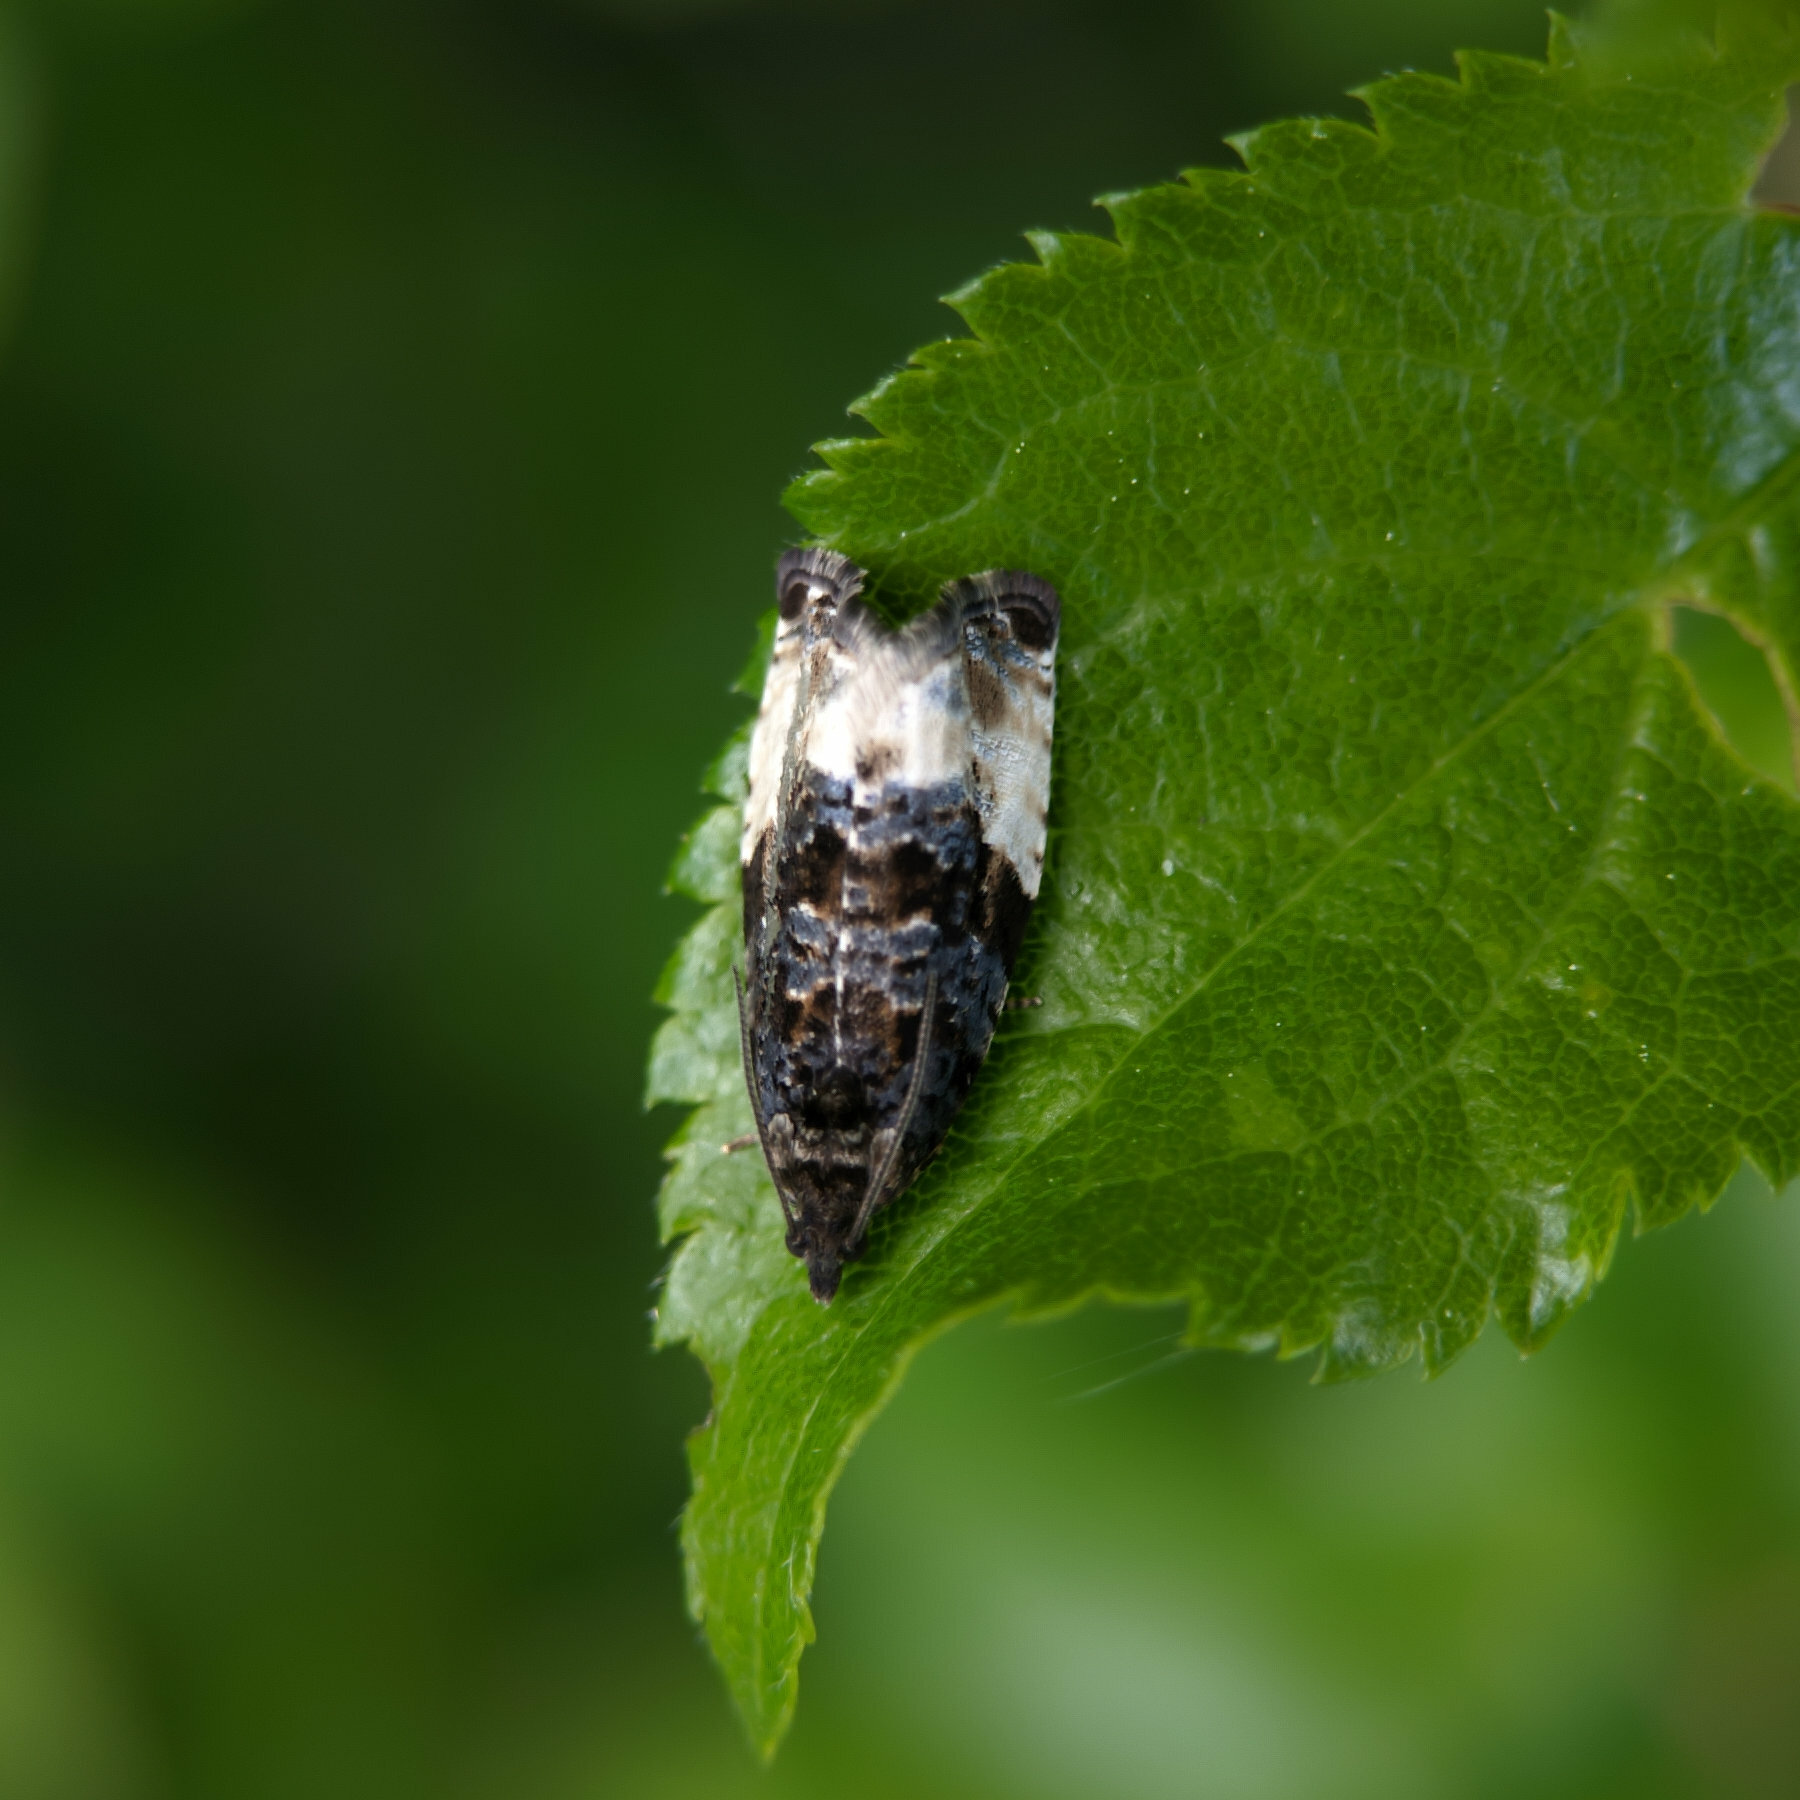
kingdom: Animalia
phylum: Arthropoda
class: Insecta
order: Lepidoptera
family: Tortricidae
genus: Hedya
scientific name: Hedya pruniana
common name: Plum tortrix
